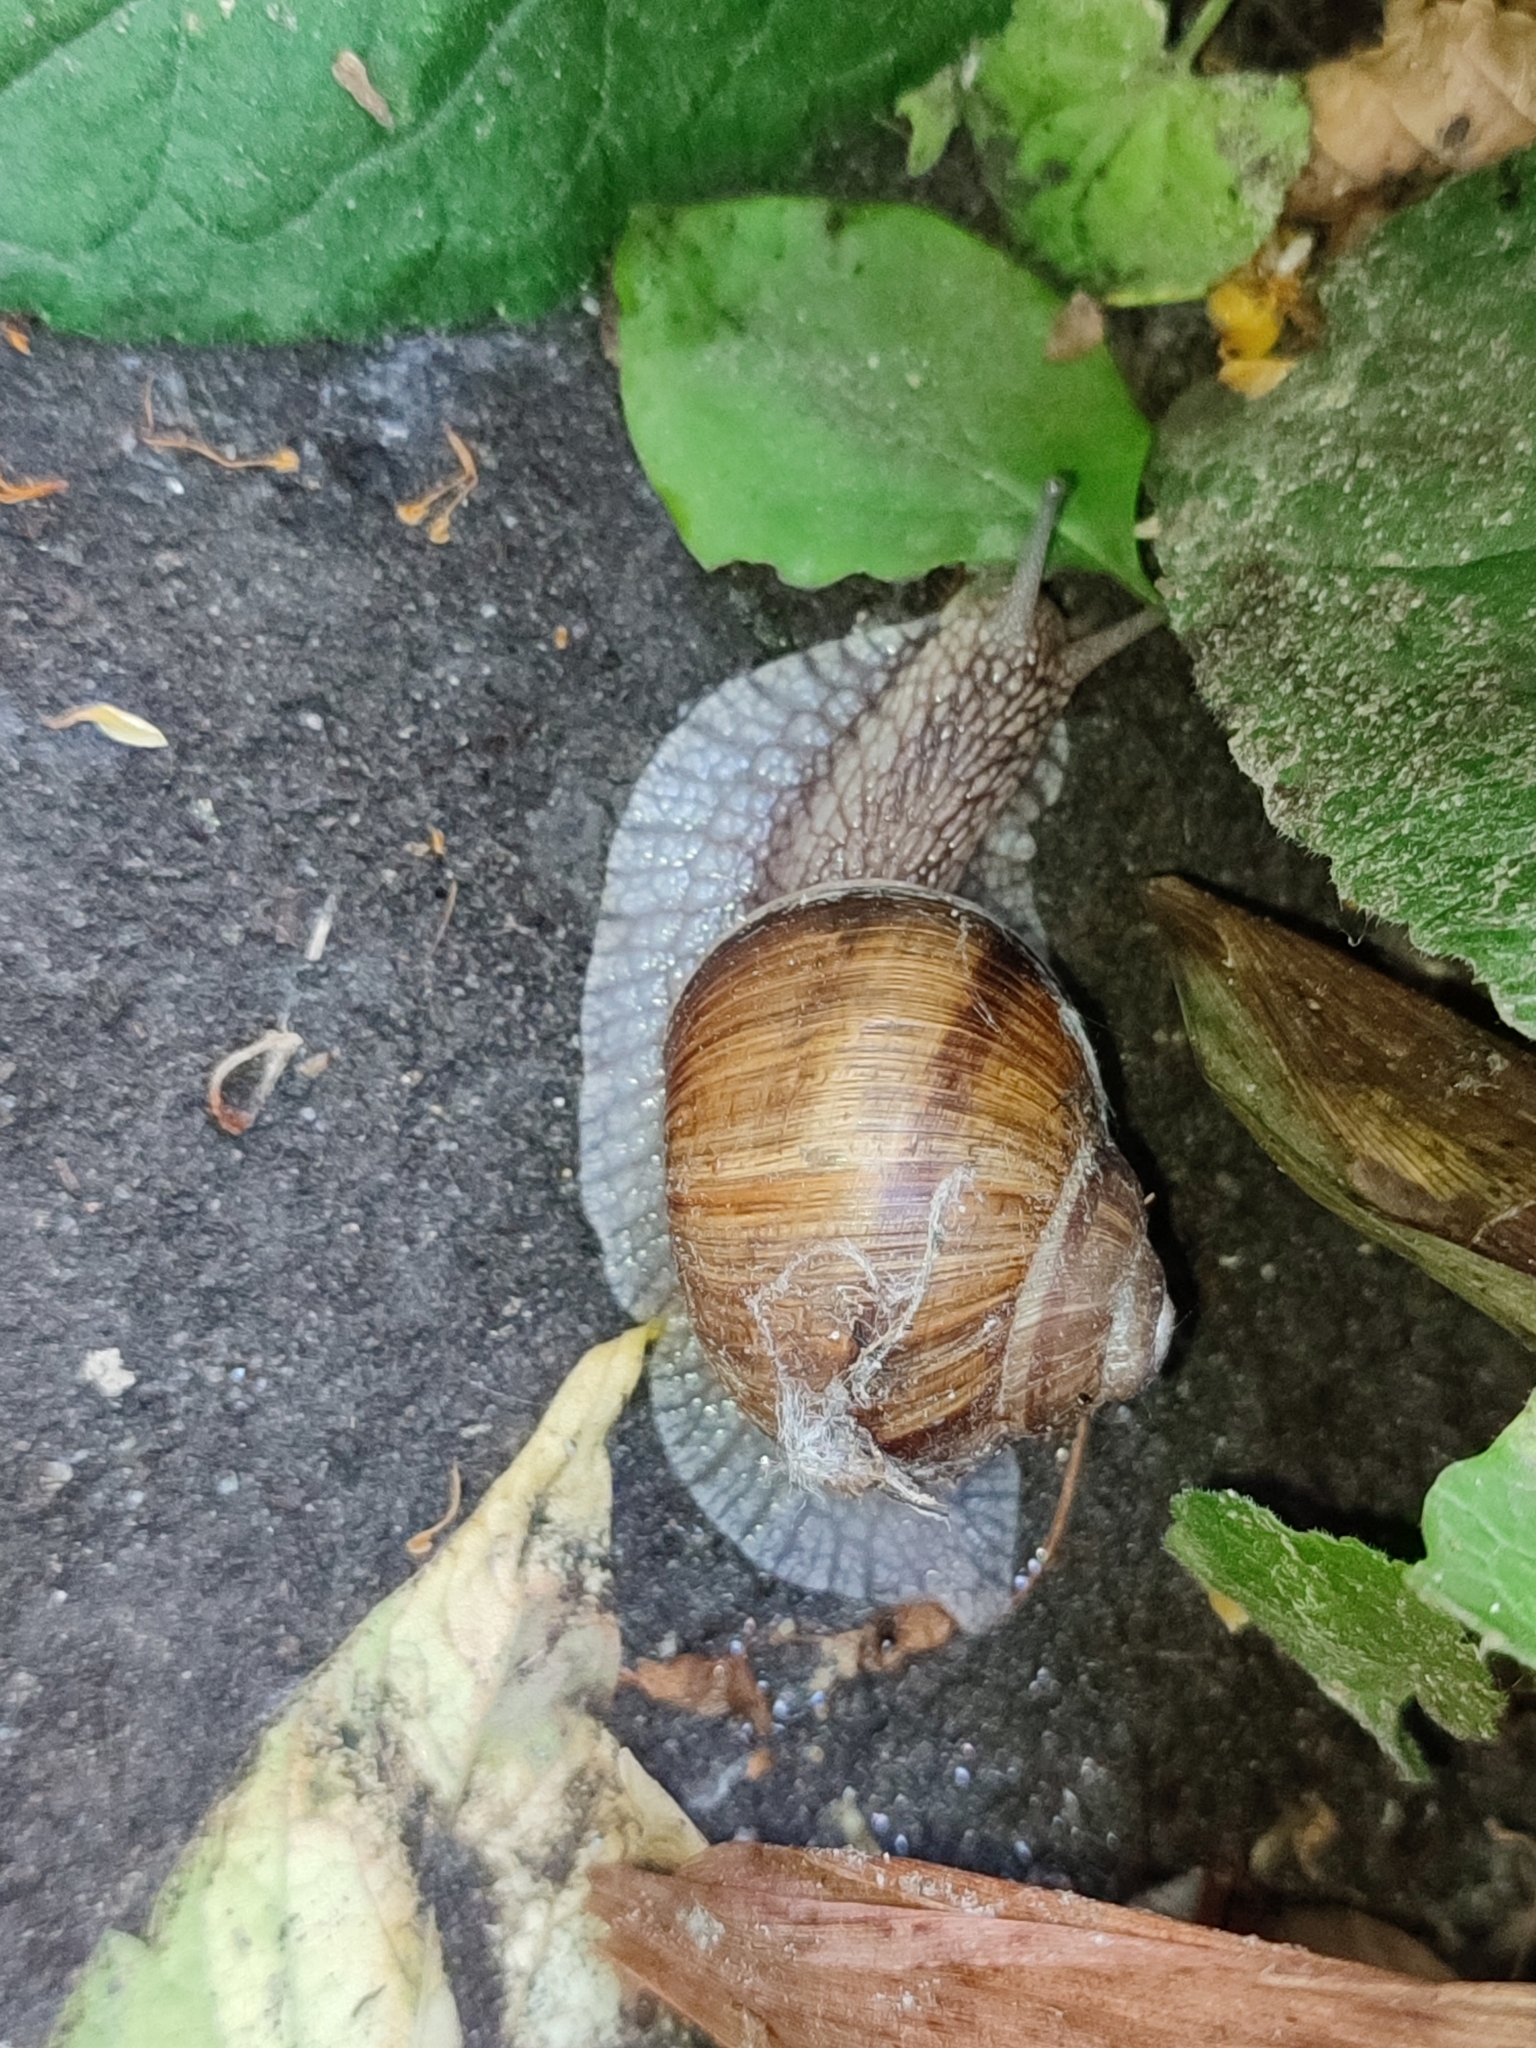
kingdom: Animalia
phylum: Mollusca
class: Gastropoda
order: Stylommatophora
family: Helicidae
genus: Helix
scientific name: Helix pomatia
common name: Roman snail
